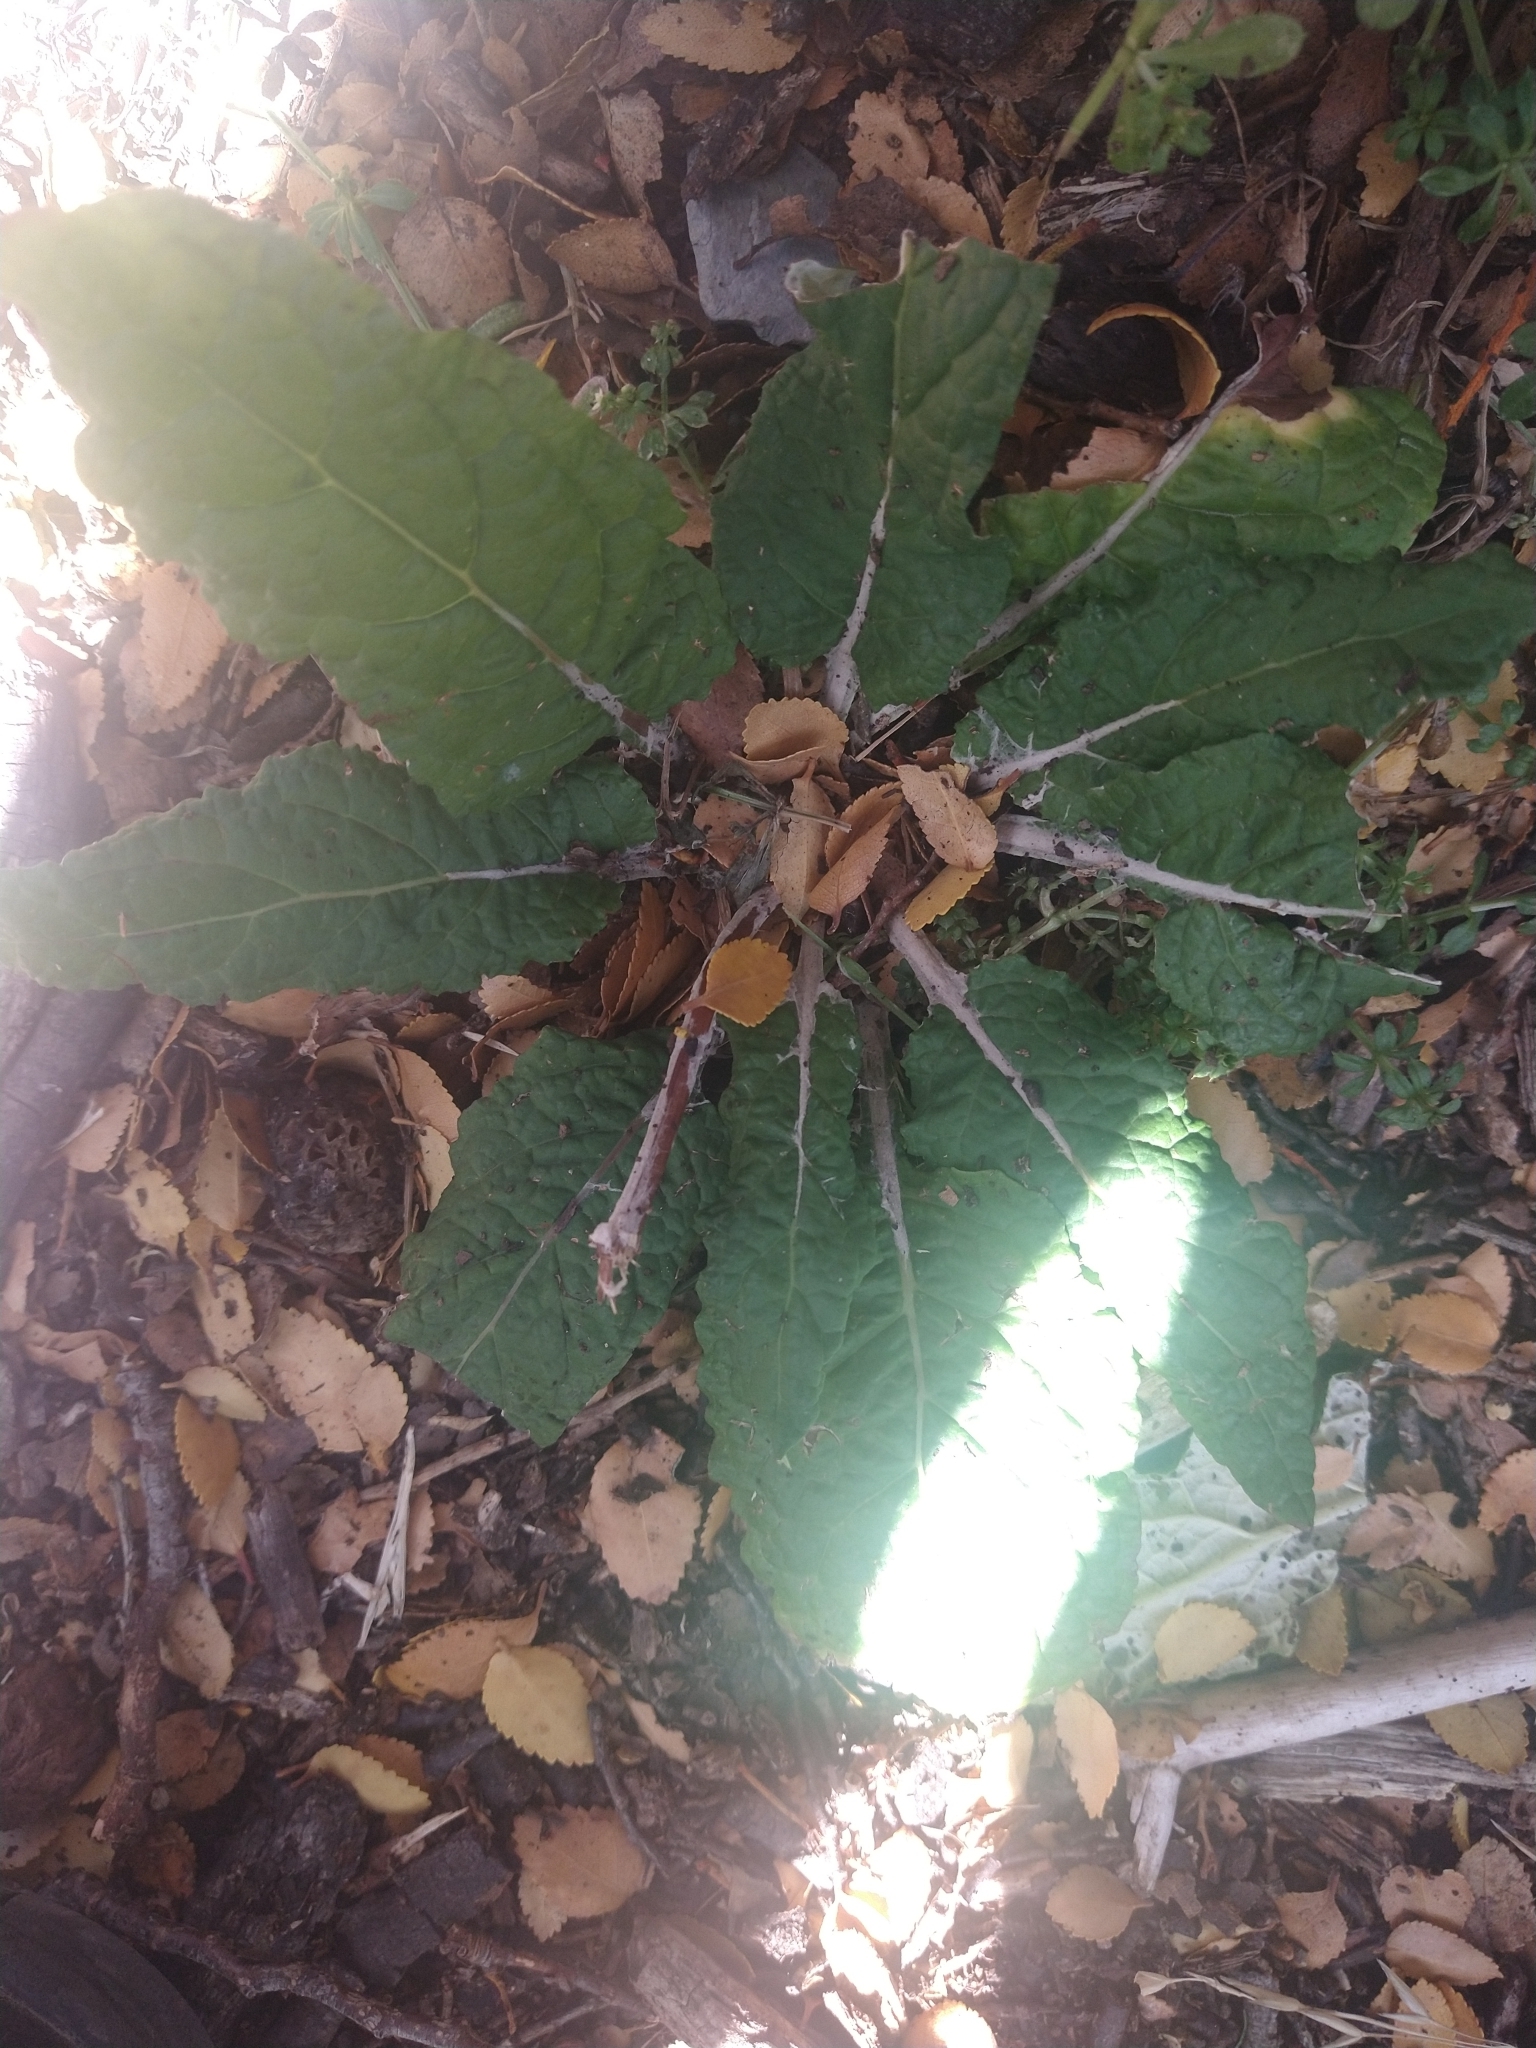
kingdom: Plantae
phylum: Tracheophyta
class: Magnoliopsida
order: Asterales
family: Asteraceae
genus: Adenocaulon
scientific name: Adenocaulon chilense
